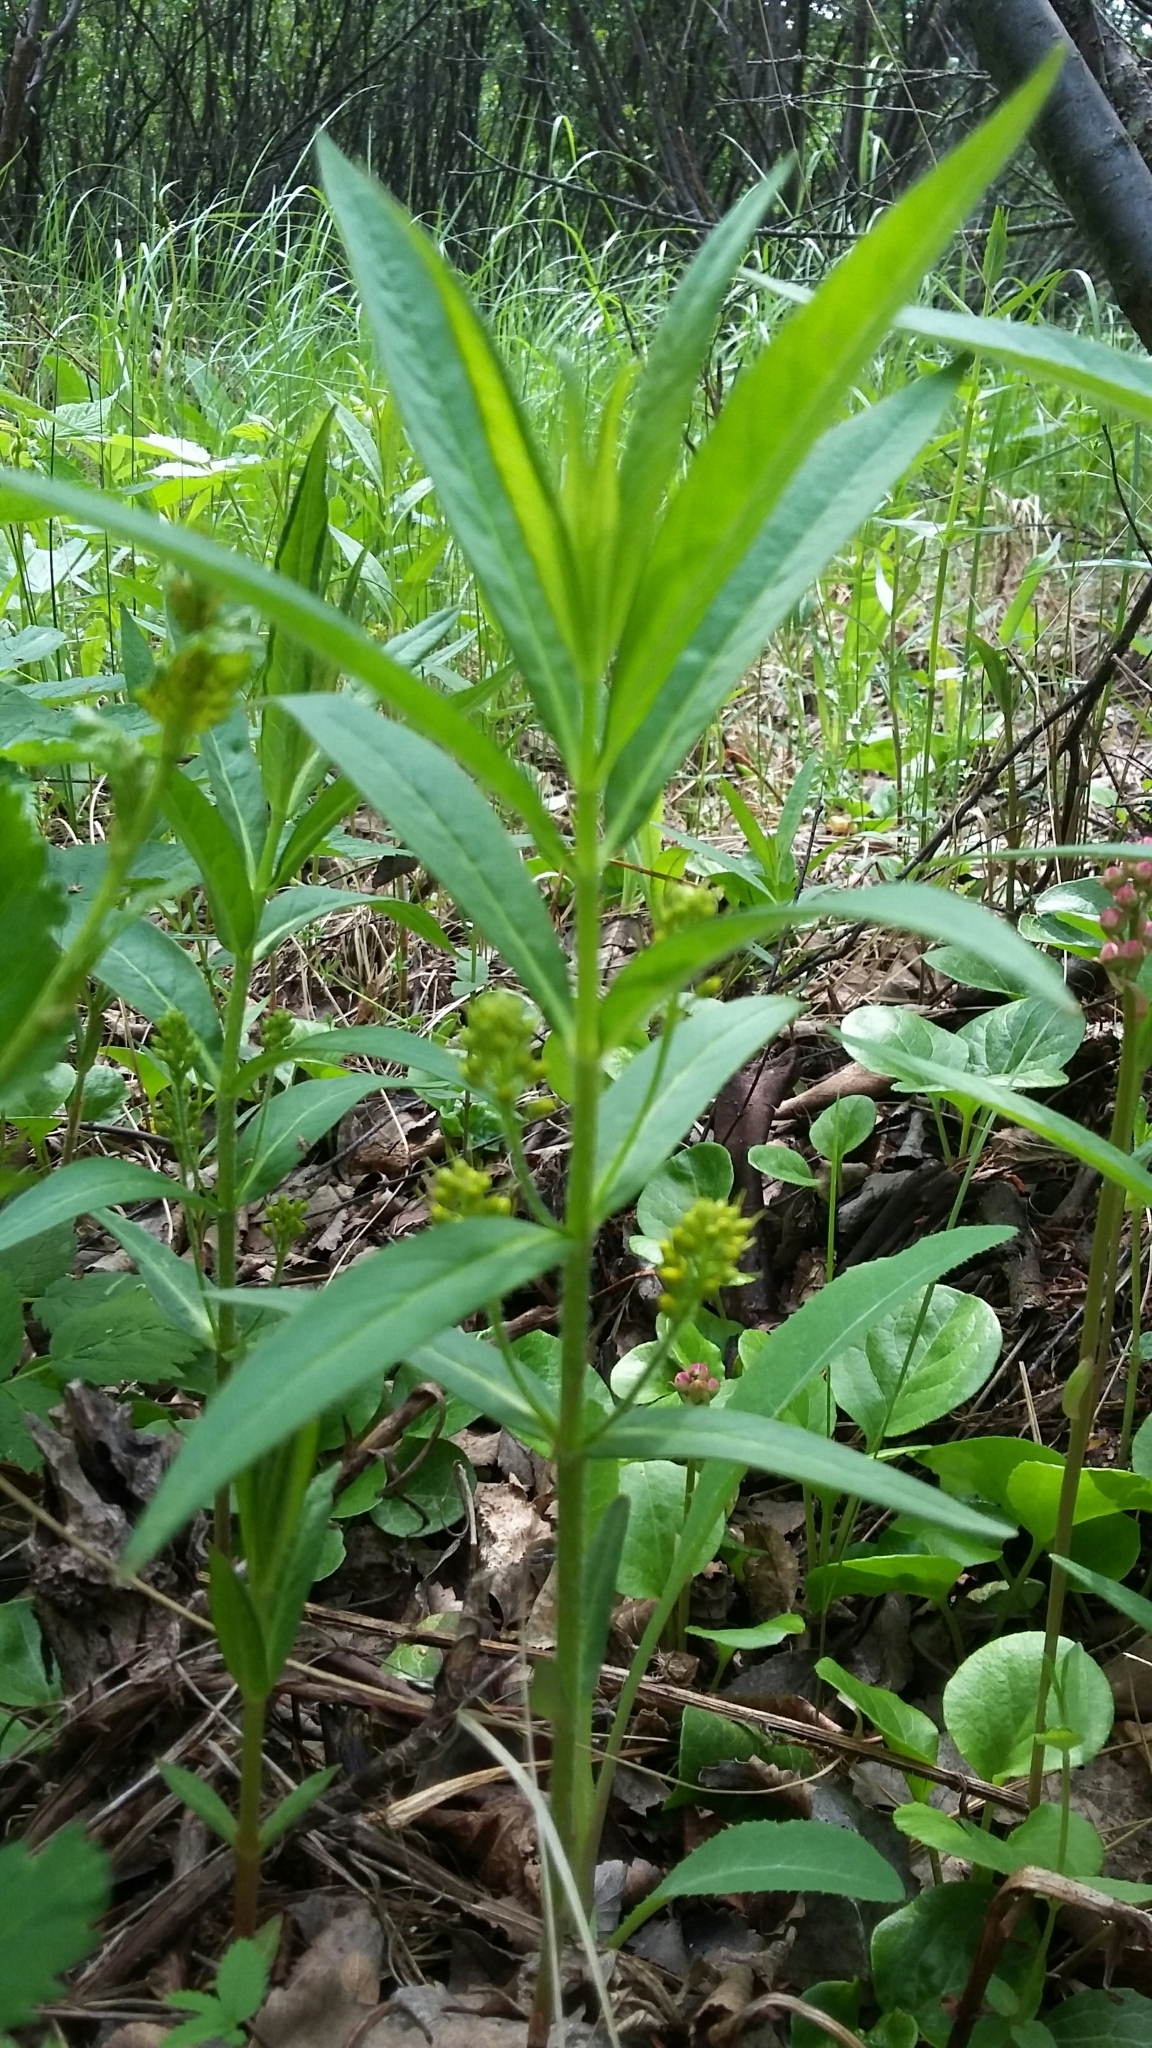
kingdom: Plantae
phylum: Tracheophyta
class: Magnoliopsida
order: Ericales
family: Primulaceae
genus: Lysimachia
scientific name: Lysimachia thyrsiflora
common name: Tufted loosestrife
